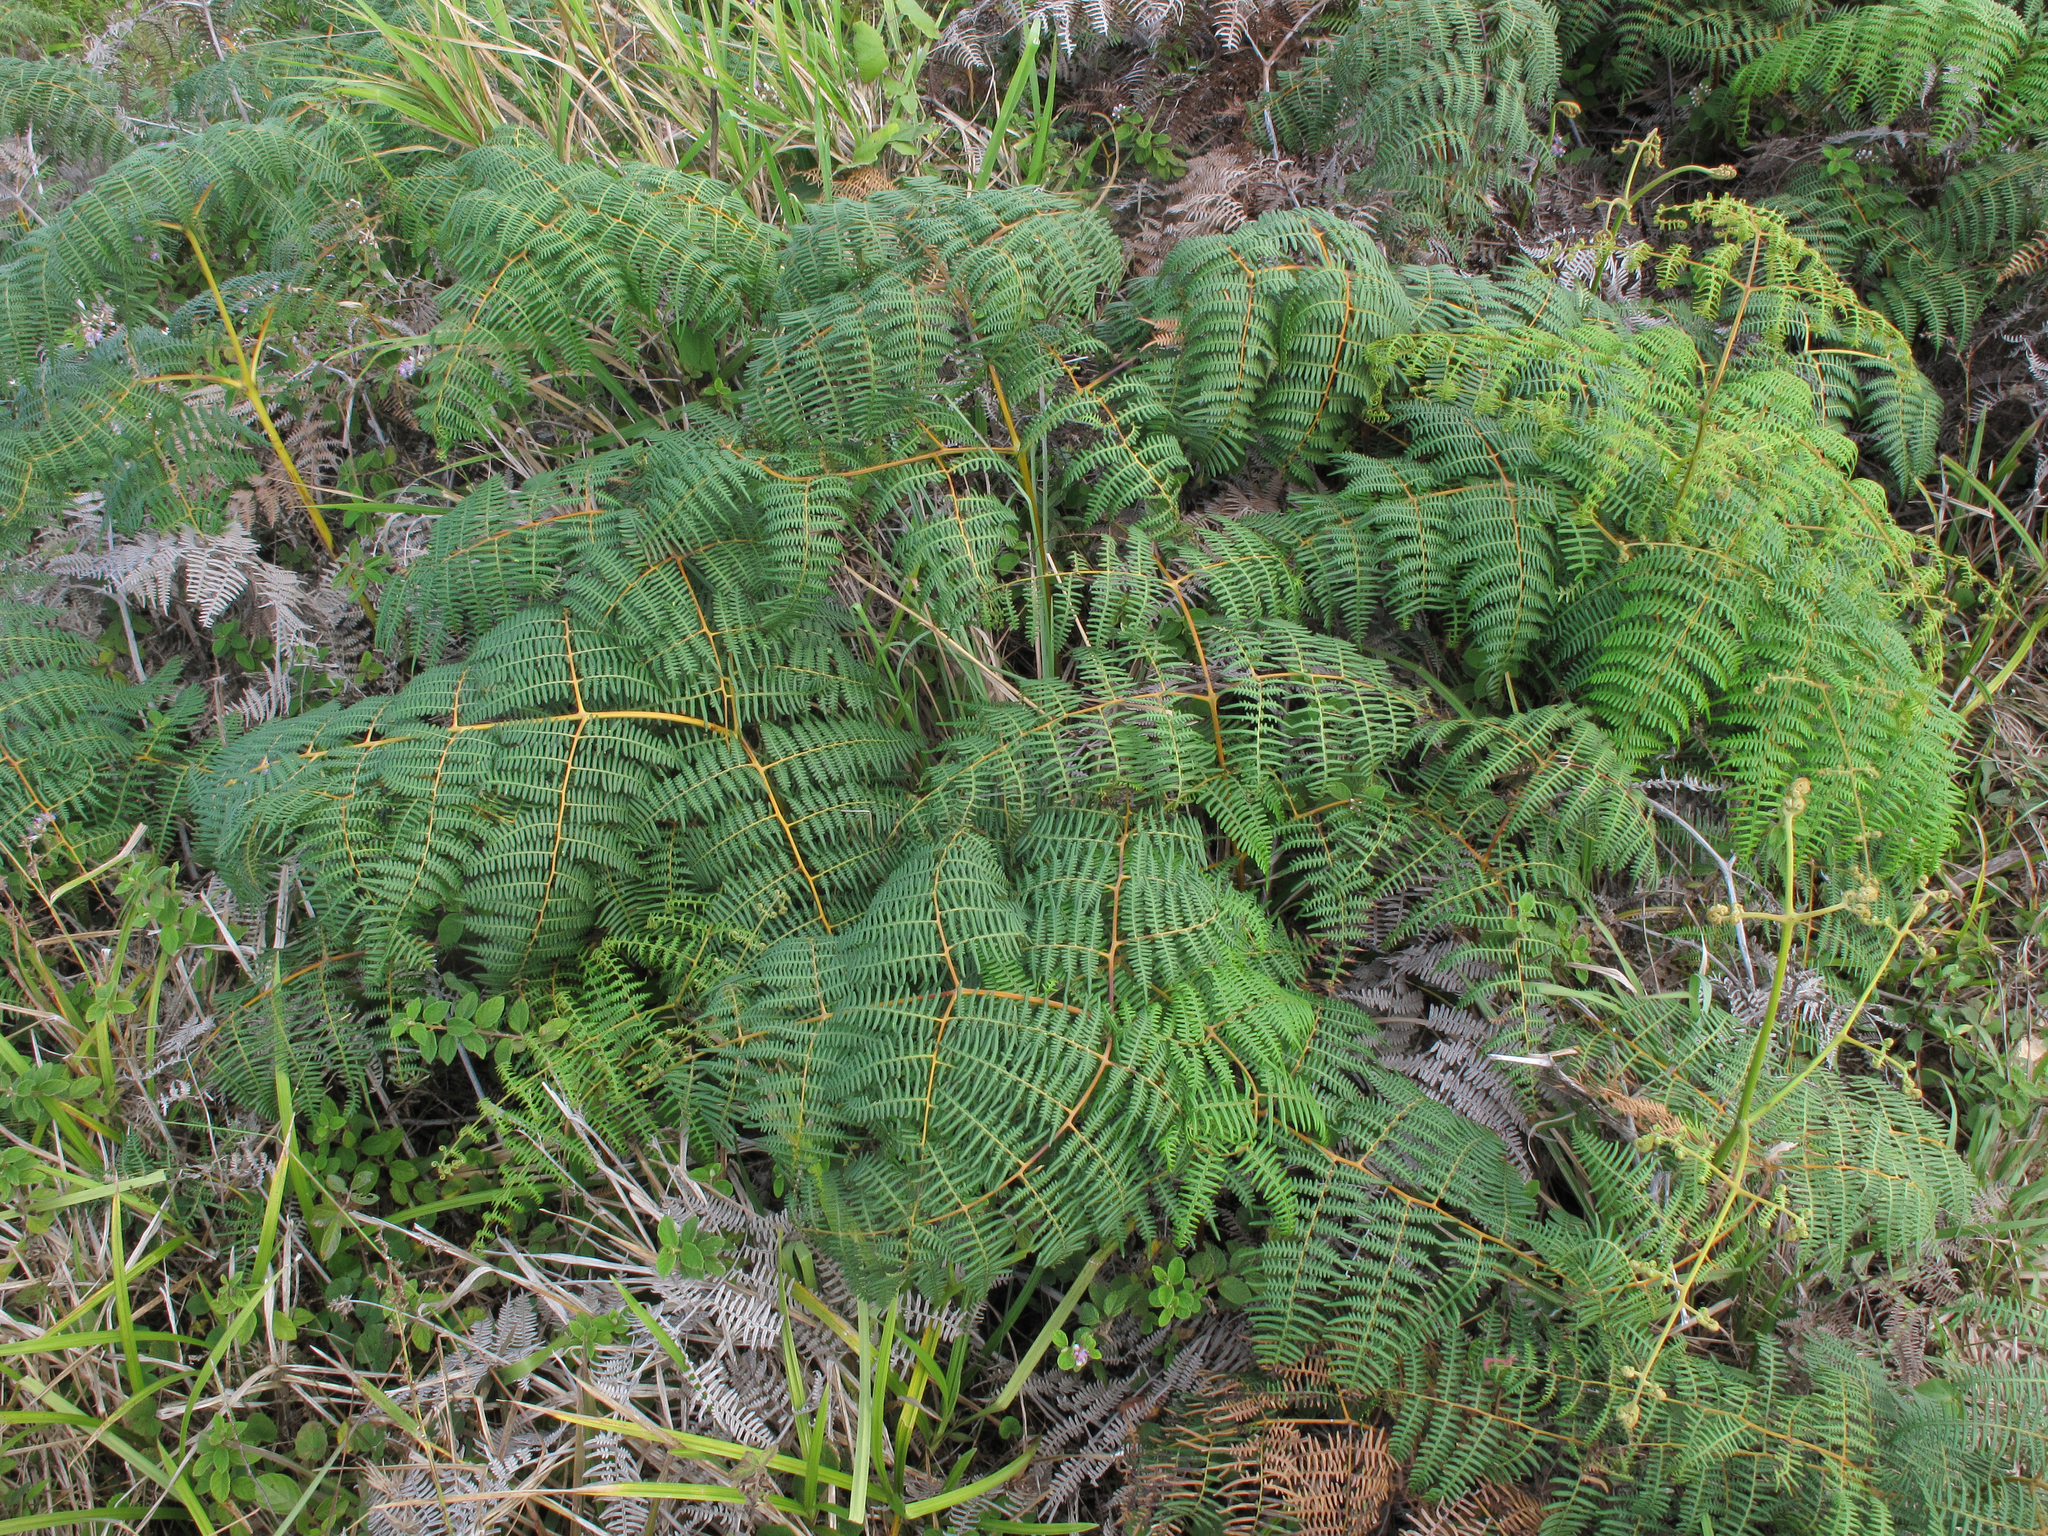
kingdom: Plantae
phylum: Tracheophyta
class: Polypodiopsida
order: Polypodiales
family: Dennstaedtiaceae
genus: Pteridium
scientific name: Pteridium esculentum
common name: Bracken fern
